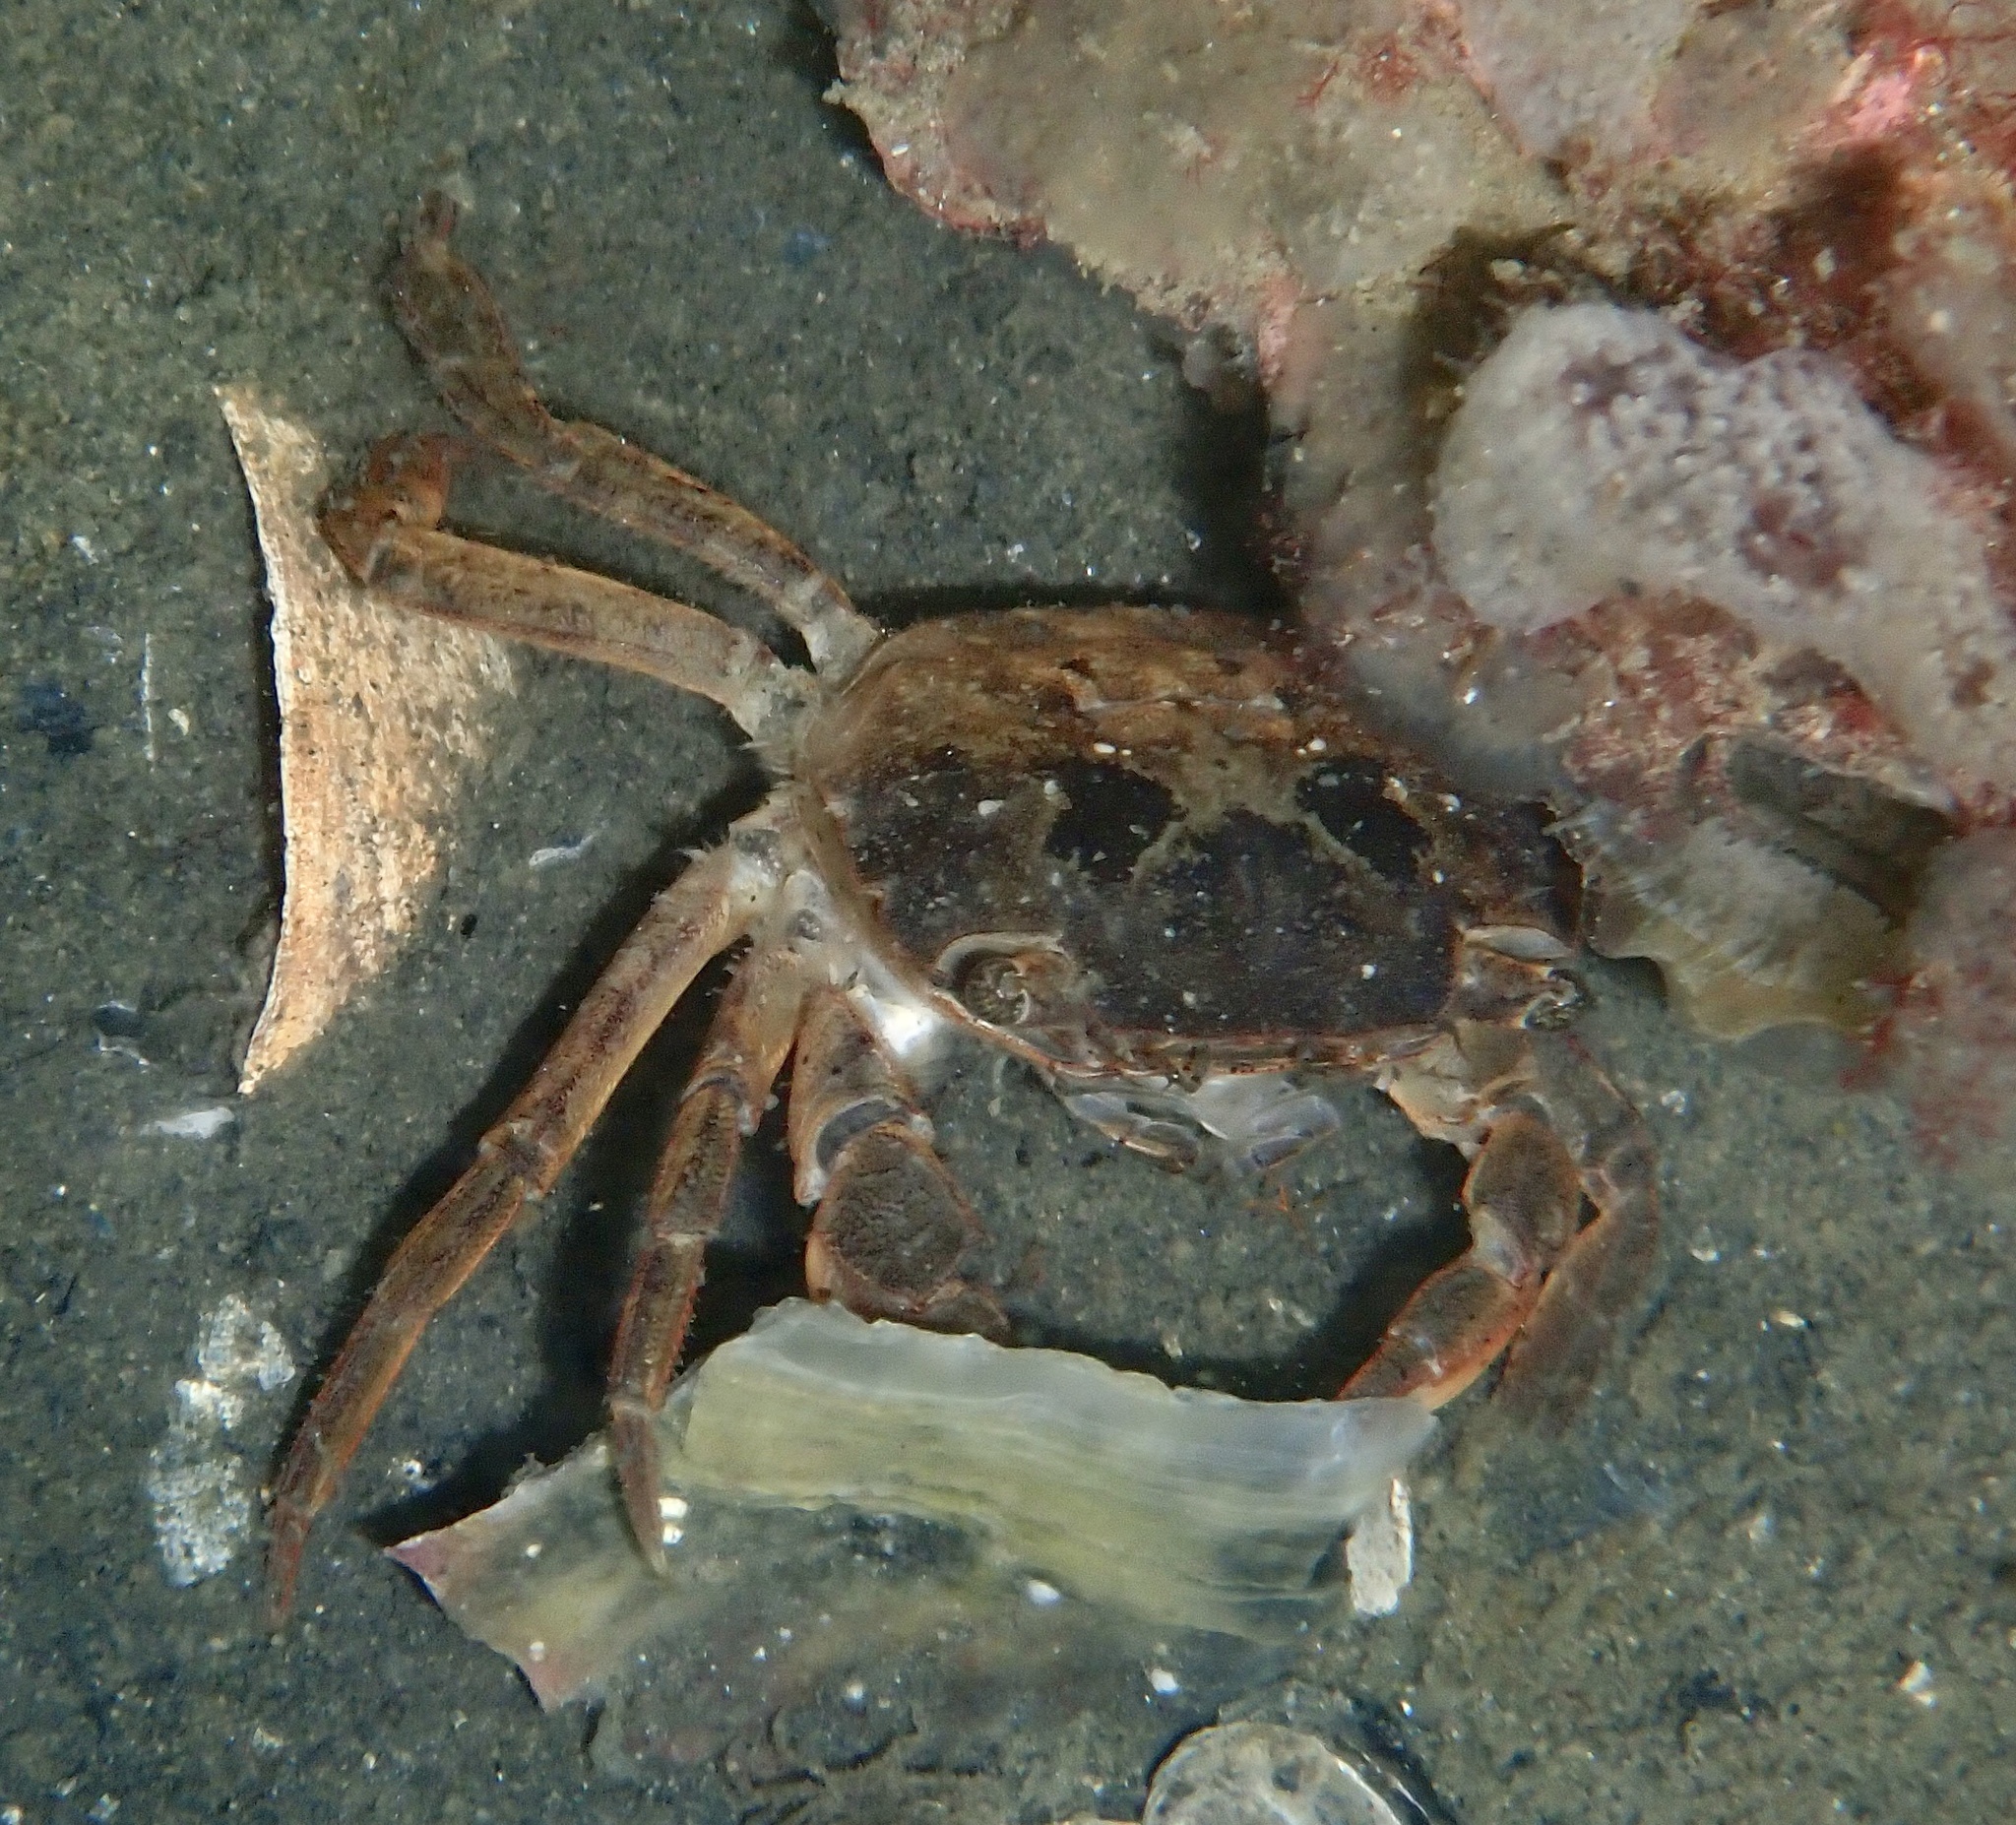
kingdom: Animalia
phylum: Arthropoda
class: Malacostraca
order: Decapoda
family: Varunidae
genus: Hemigrapsus
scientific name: Hemigrapsus takanoi
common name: Asian brush crab
